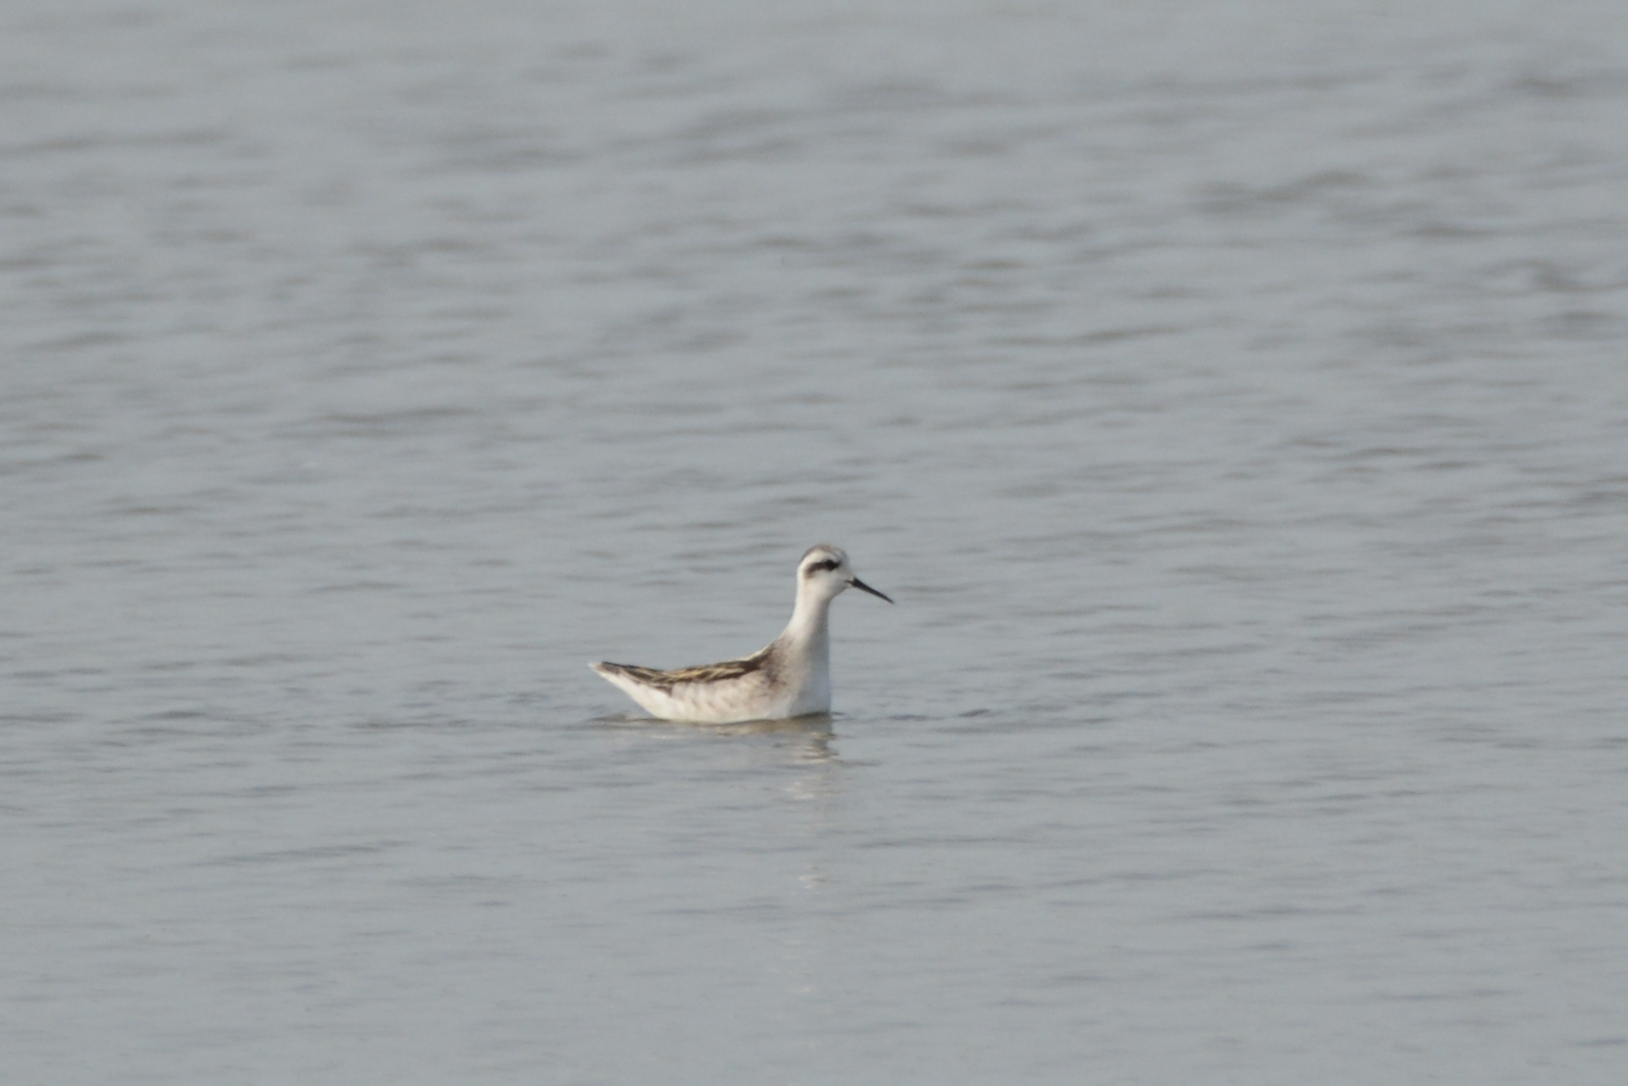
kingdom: Animalia
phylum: Chordata
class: Aves
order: Charadriiformes
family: Scolopacidae
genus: Phalaropus
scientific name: Phalaropus lobatus
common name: Red-necked phalarope
